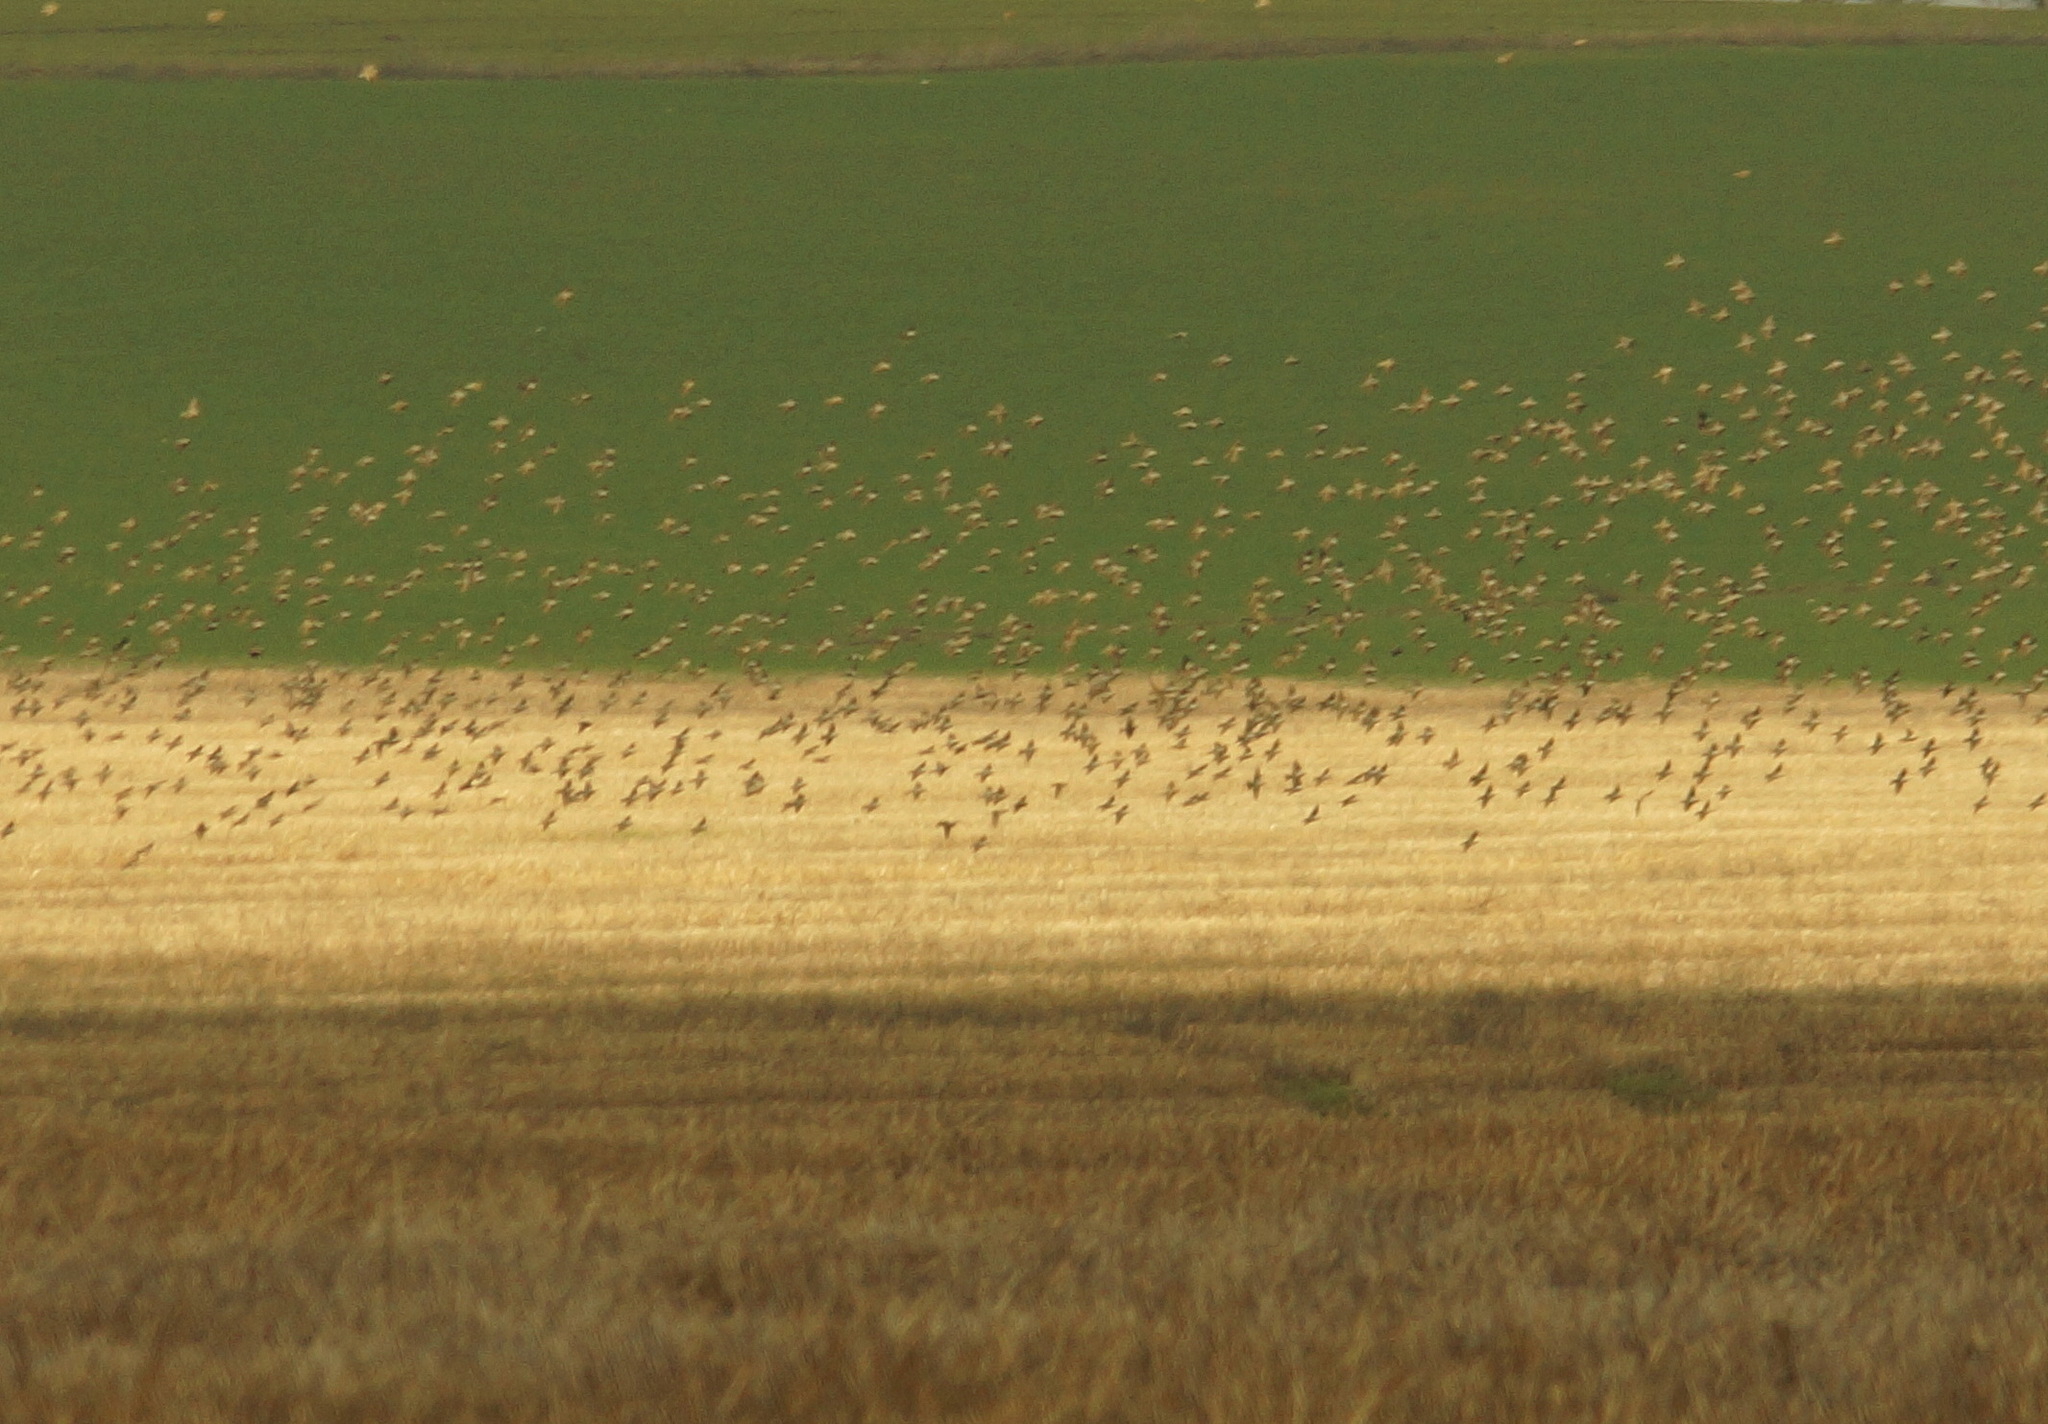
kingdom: Animalia
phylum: Chordata
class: Aves
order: Passeriformes
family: Sturnidae
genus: Sturnus
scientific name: Sturnus vulgaris
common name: Common starling
